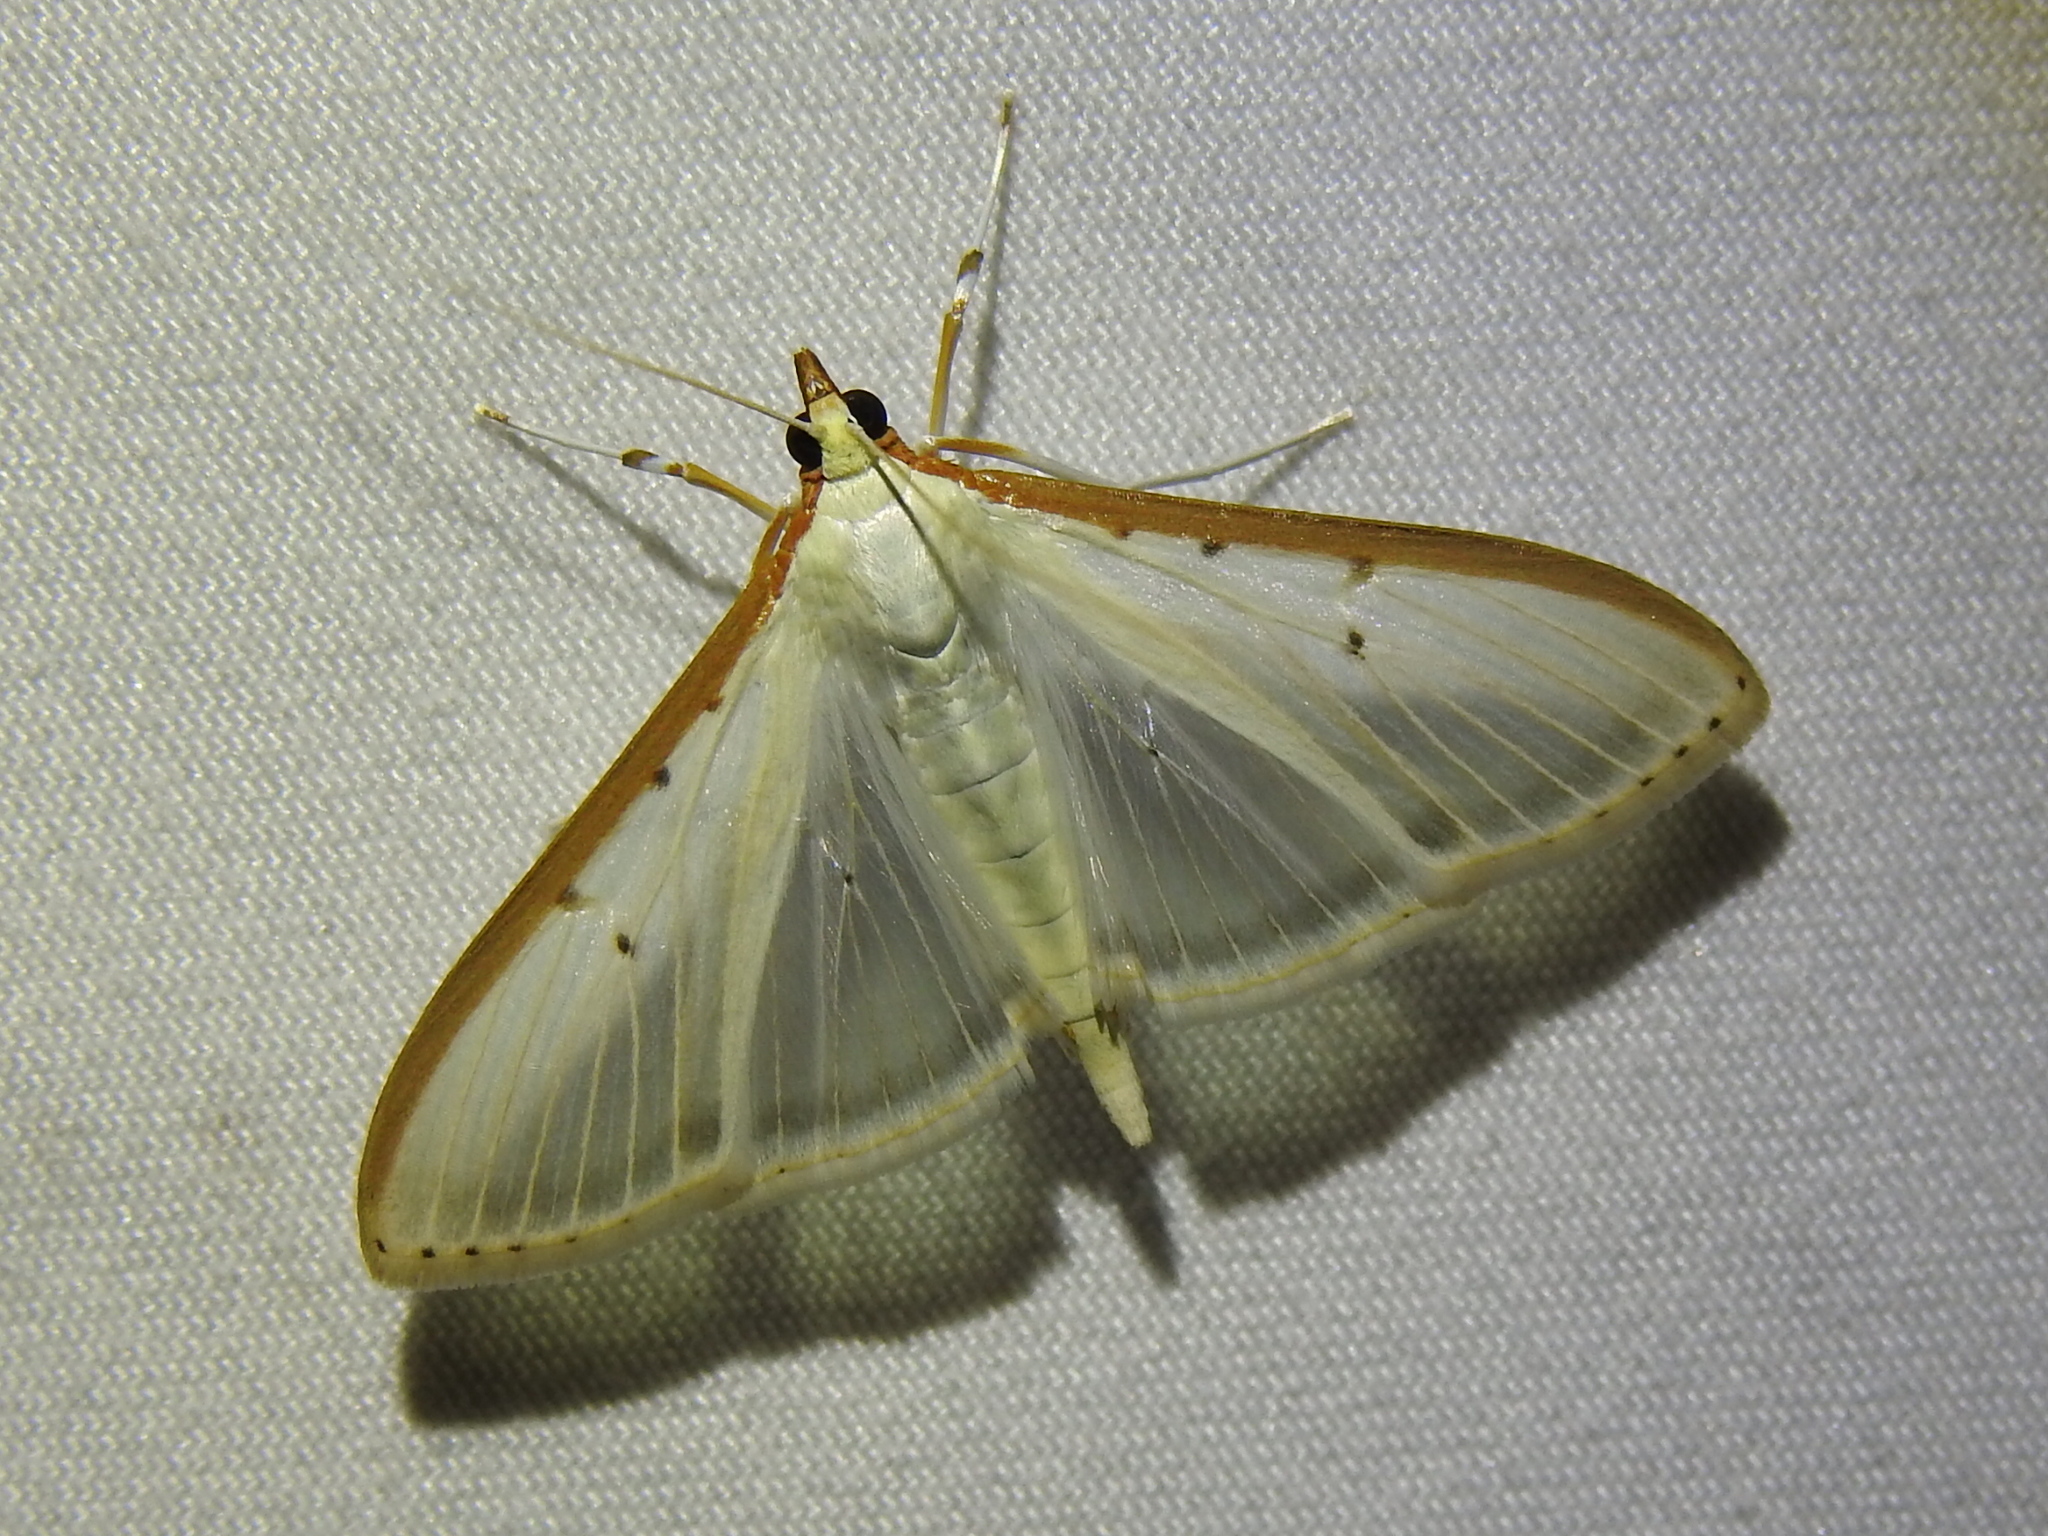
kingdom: Animalia
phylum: Arthropoda
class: Insecta
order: Lepidoptera
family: Crambidae
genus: Palpita
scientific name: Palpita quadristigmalis
